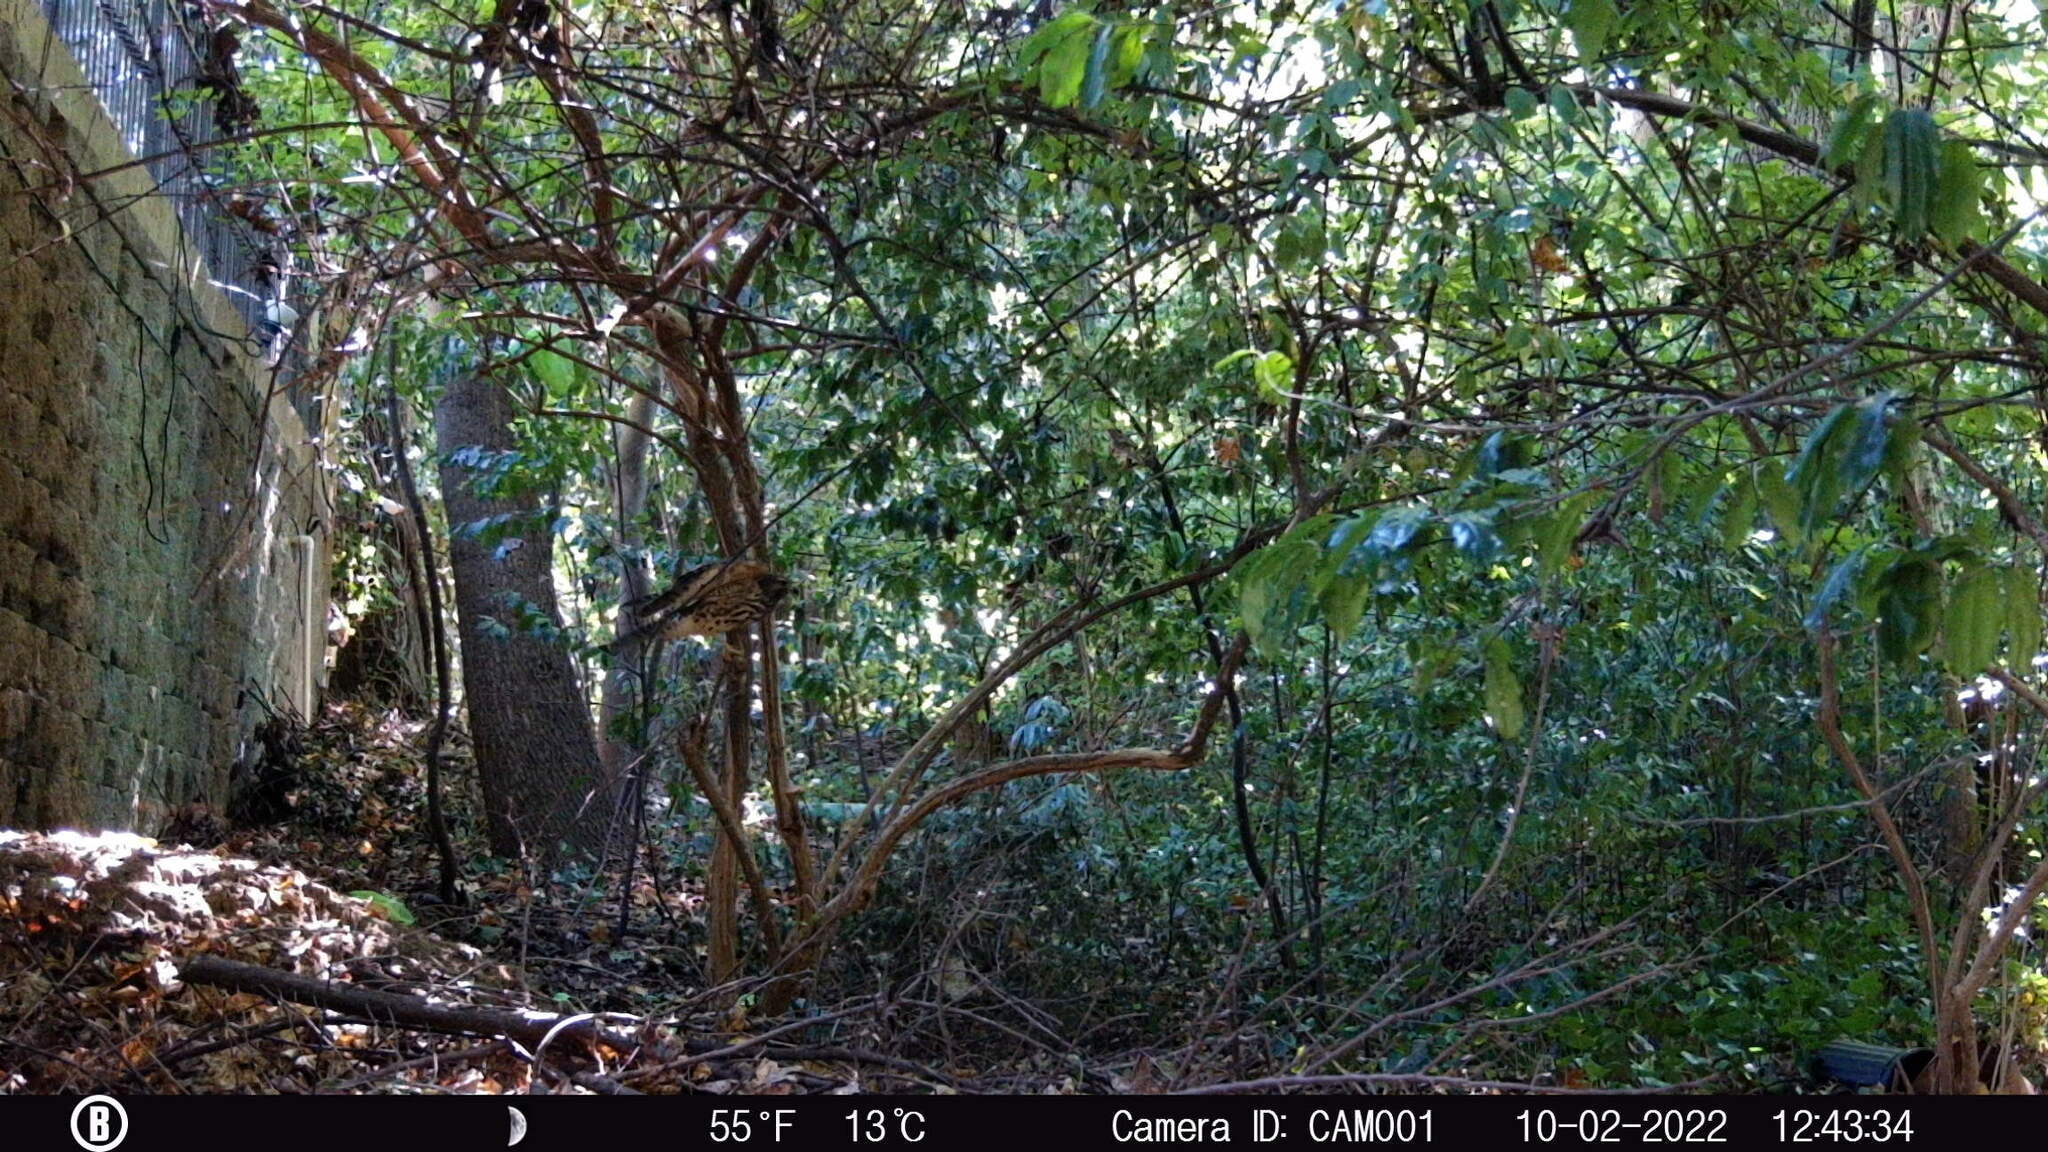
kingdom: Animalia
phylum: Chordata
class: Aves
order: Accipitriformes
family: Accipitridae
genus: Buteo
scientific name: Buteo lineatus
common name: Red-shouldered hawk
